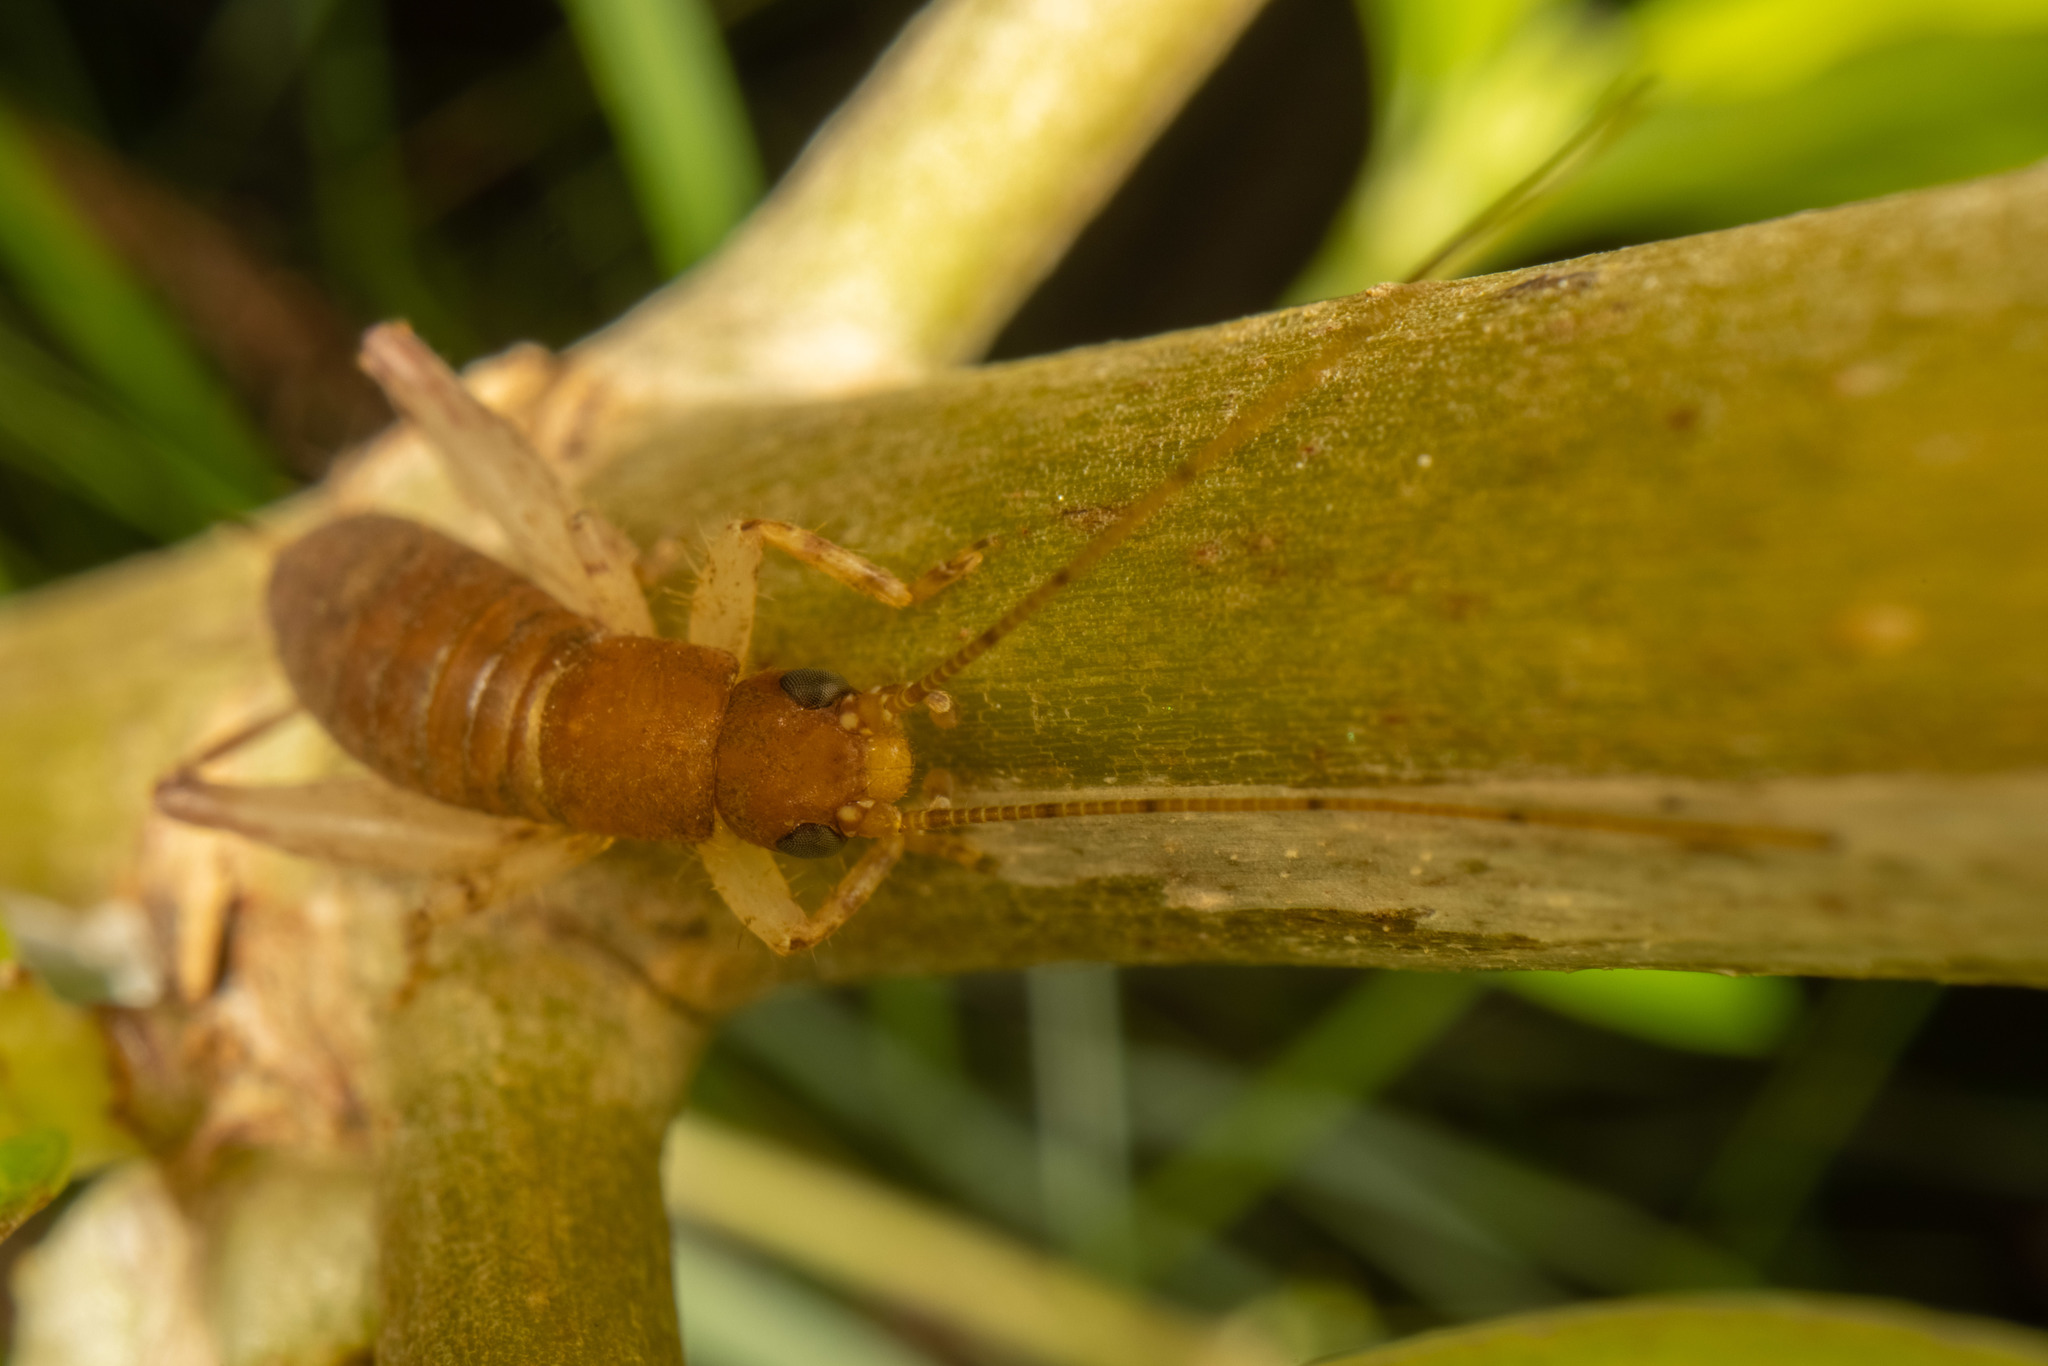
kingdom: Animalia
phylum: Arthropoda
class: Insecta
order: Orthoptera
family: Mogoplistidae
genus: Ornebius
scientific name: Ornebius aperta
